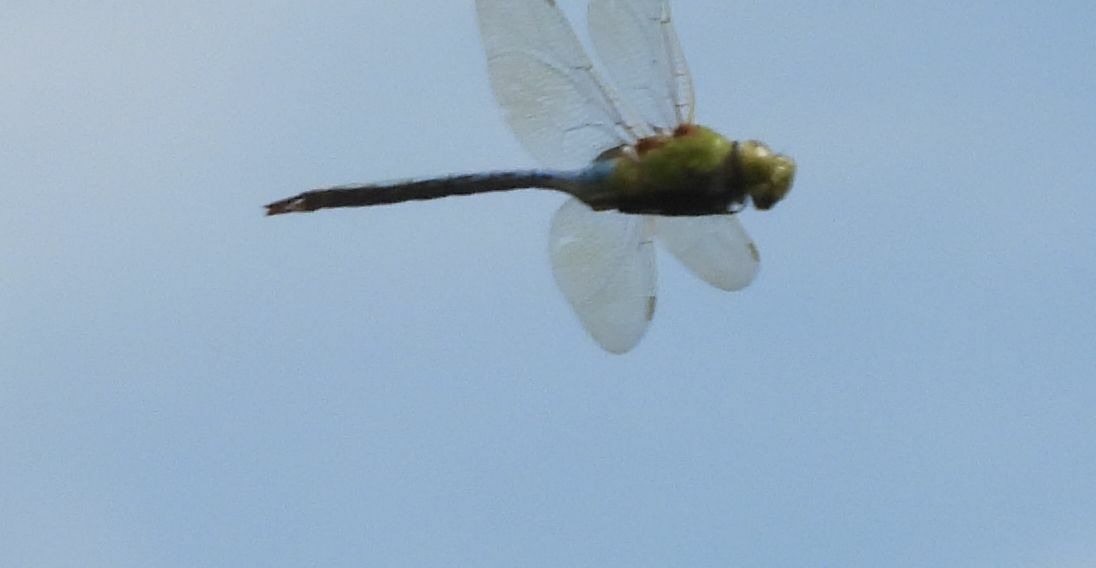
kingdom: Animalia
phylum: Arthropoda
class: Insecta
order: Odonata
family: Aeshnidae
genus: Anax
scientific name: Anax junius
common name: Common green darner
